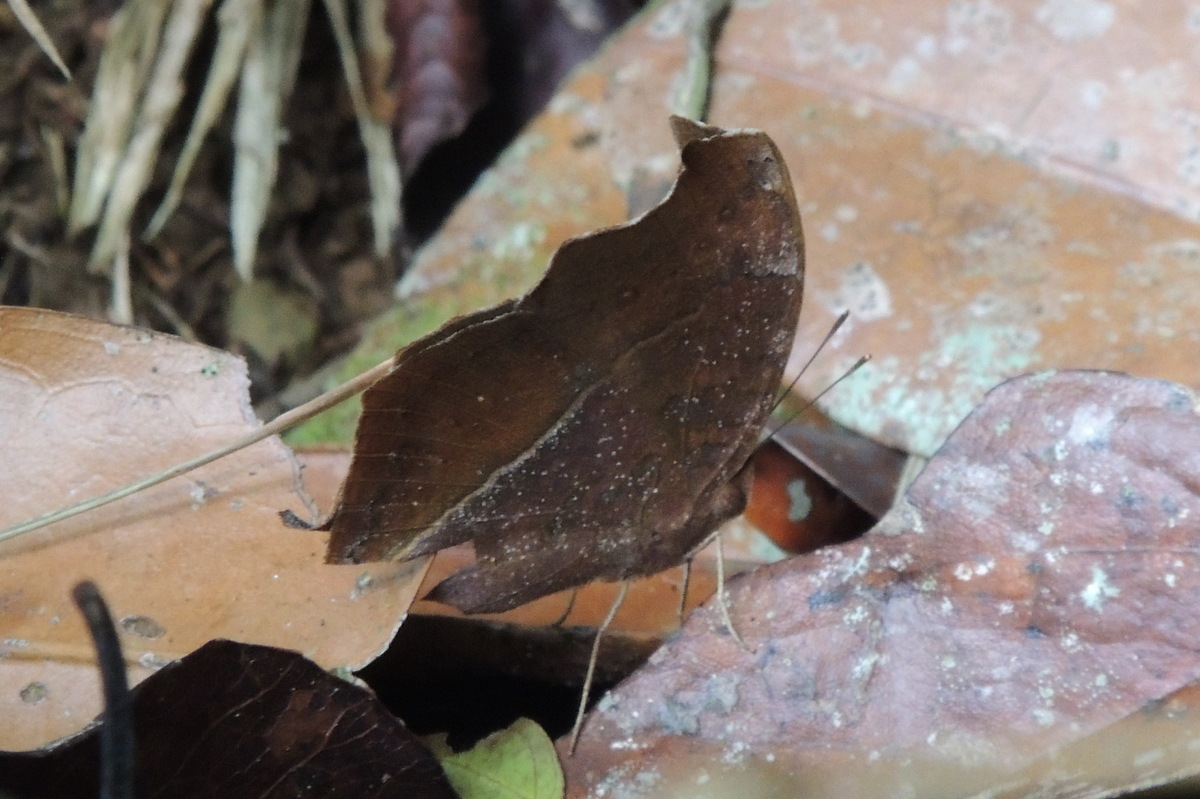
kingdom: Animalia
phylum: Arthropoda
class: Insecta
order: Lepidoptera
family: Nymphalidae
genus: Junonia
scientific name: Junonia goudotii
